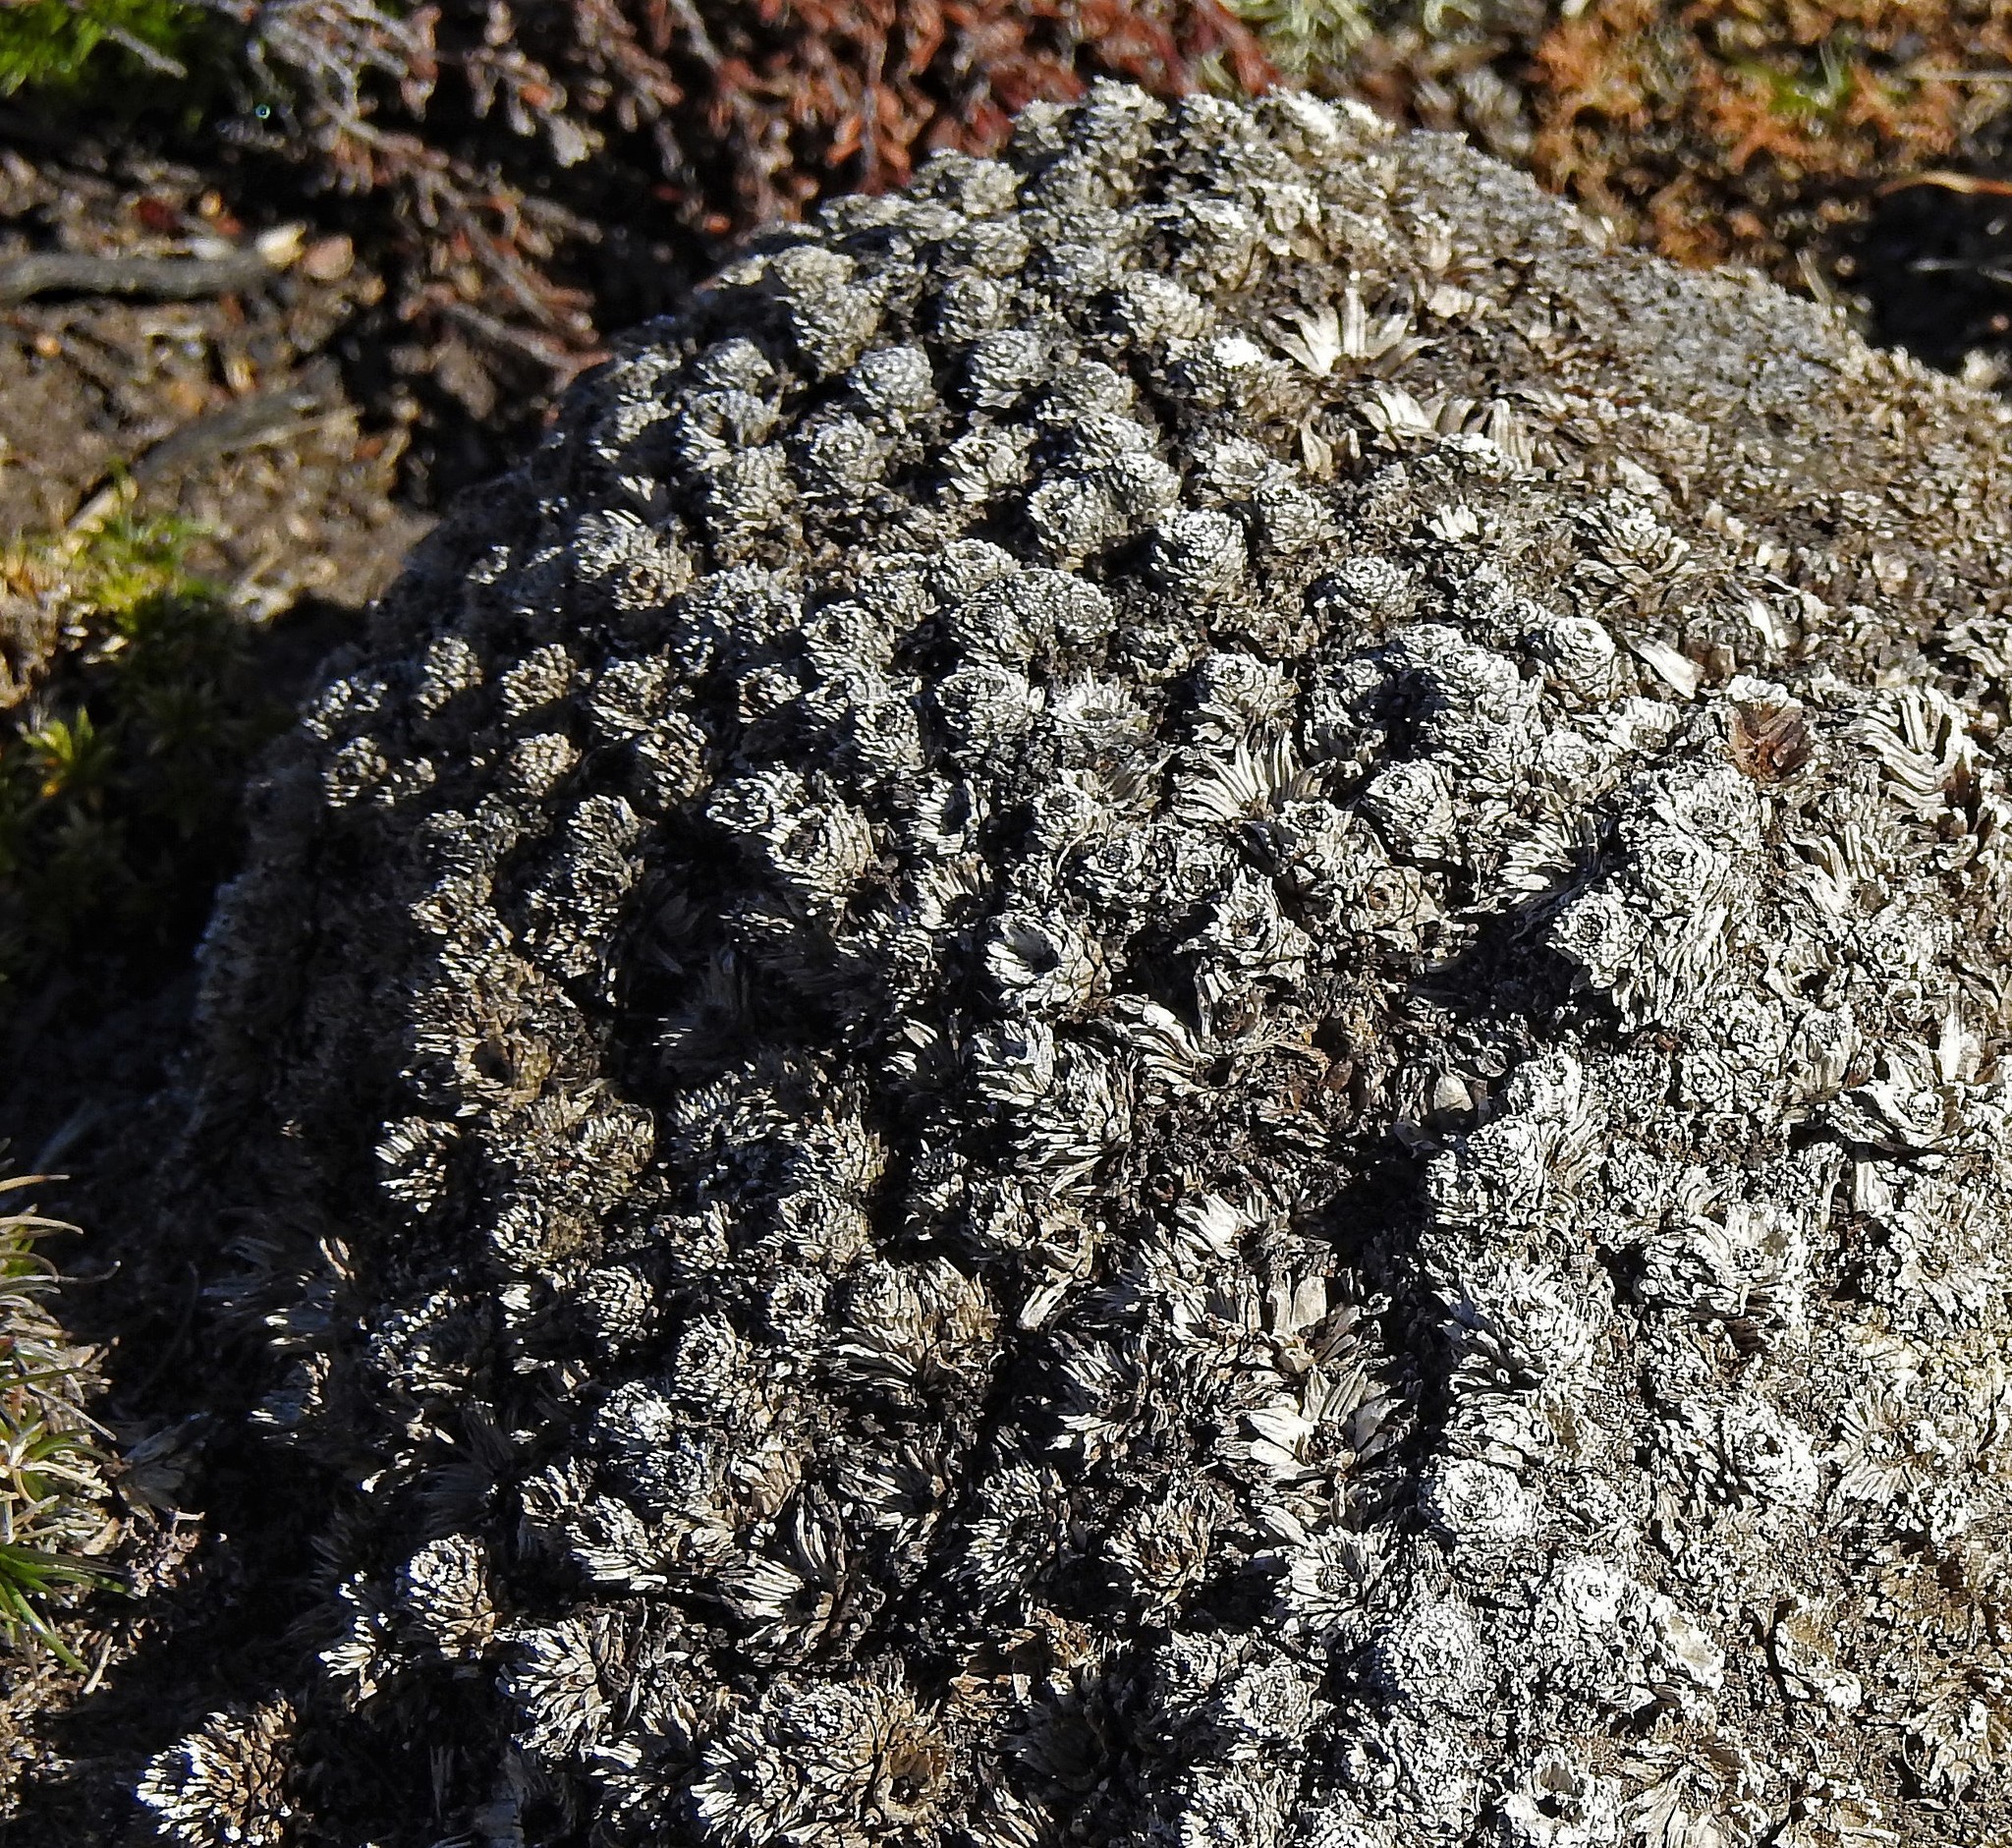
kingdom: Plantae
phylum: Tracheophyta
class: Magnoliopsida
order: Apiales
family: Apiaceae
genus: Bolax
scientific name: Bolax gummifera
